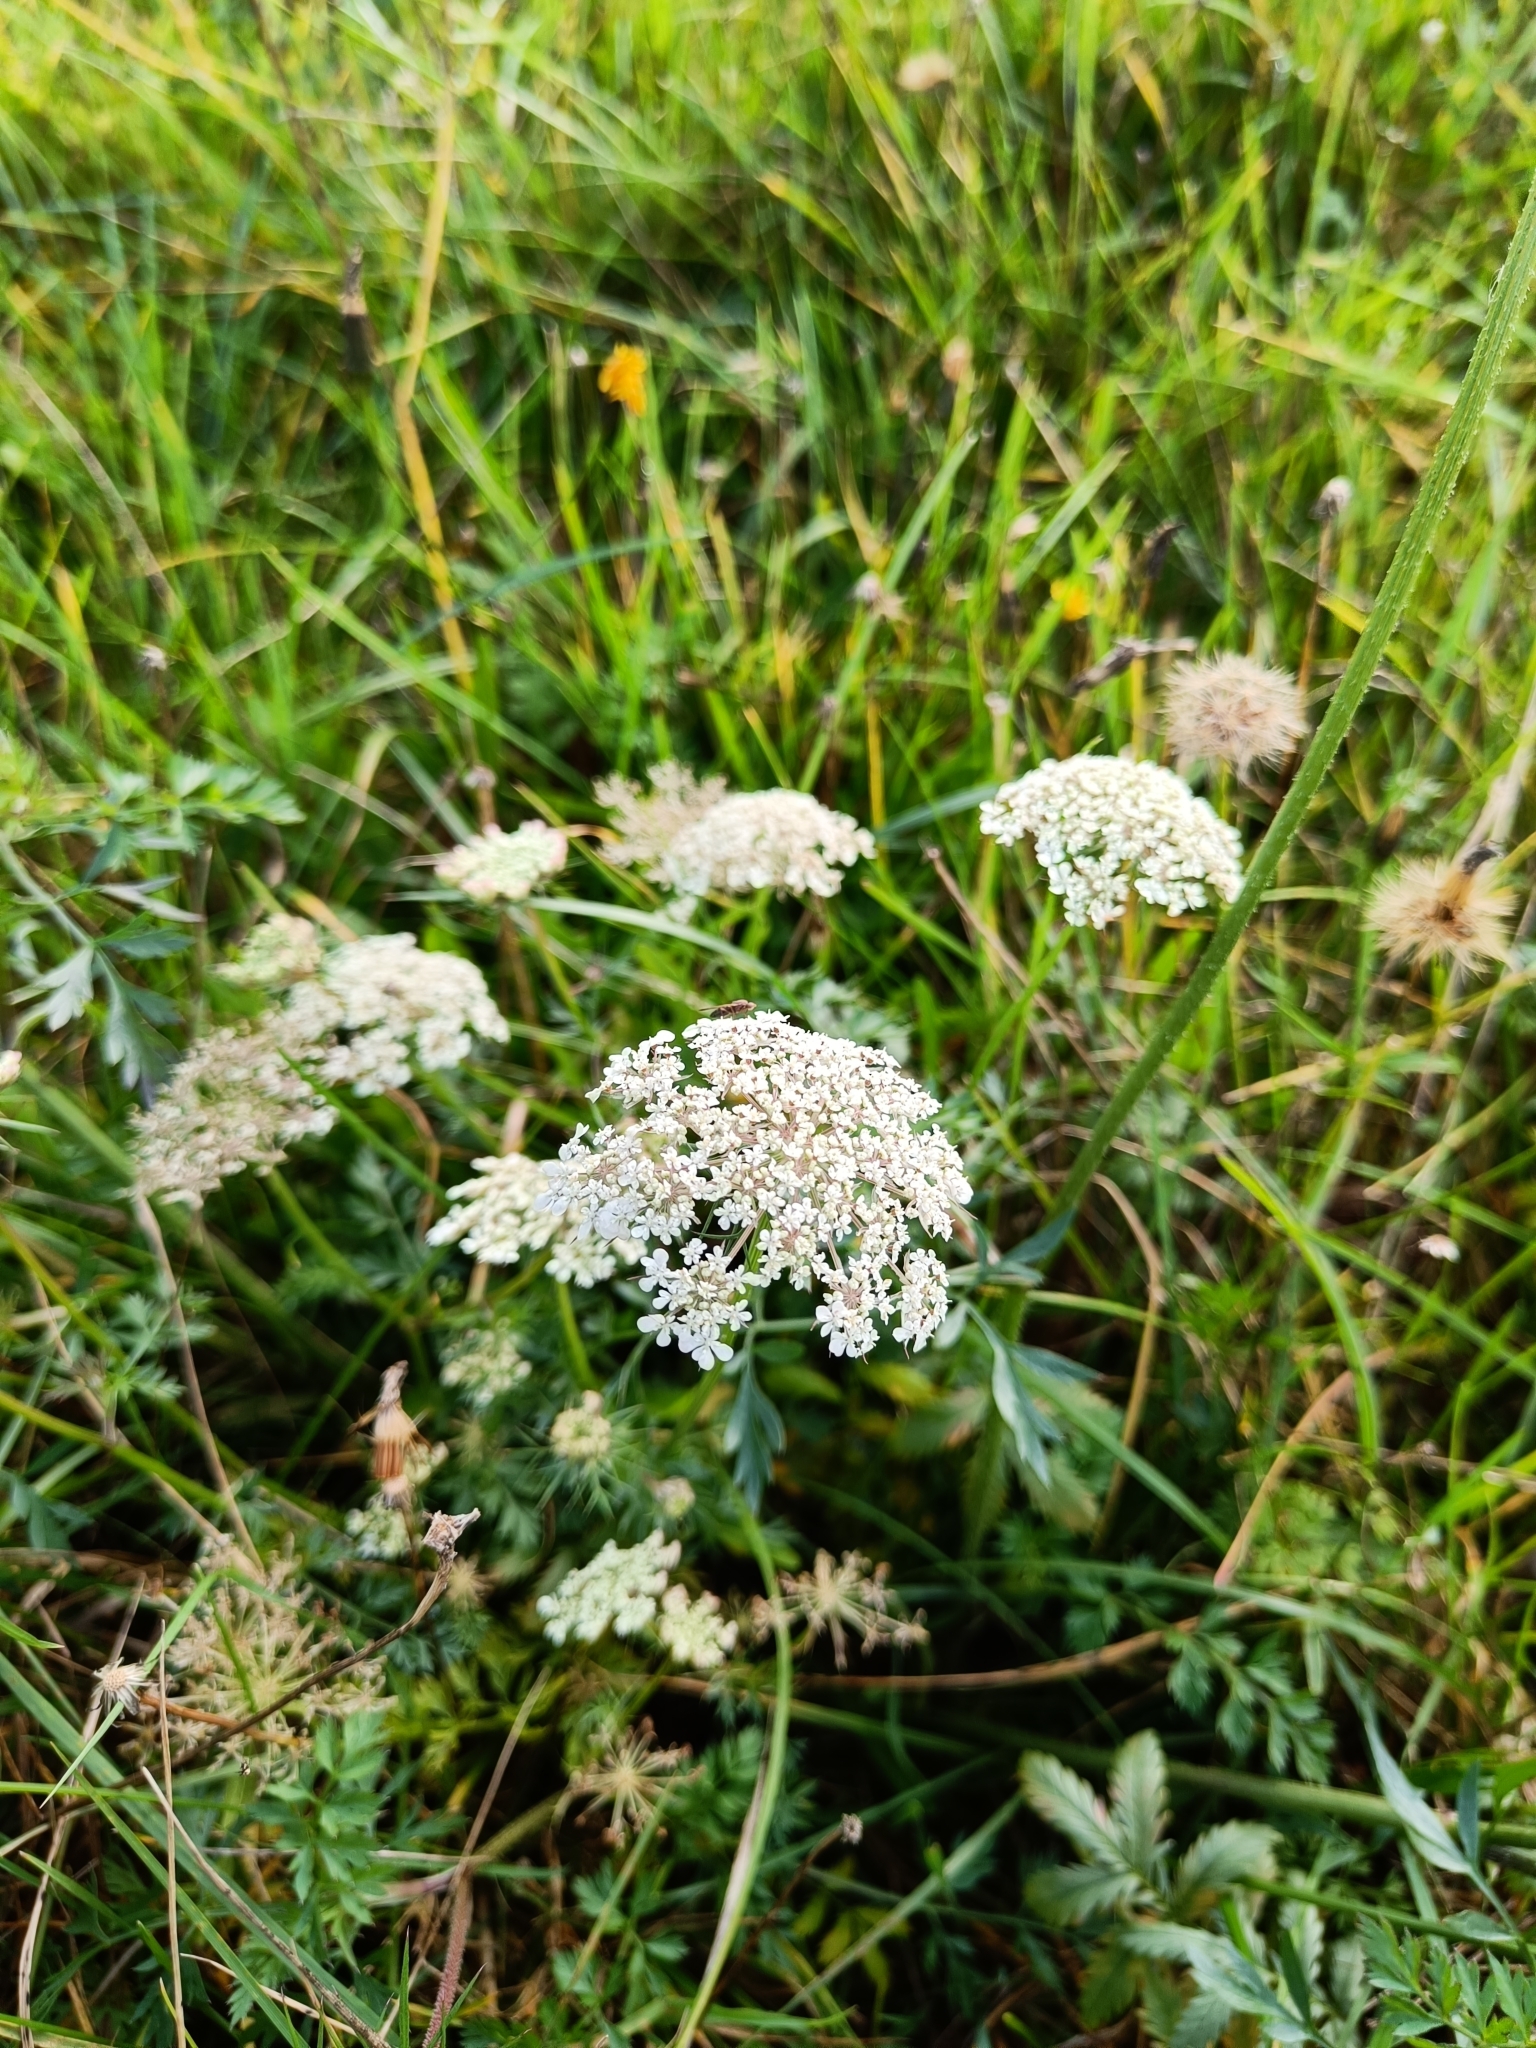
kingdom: Plantae
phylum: Tracheophyta
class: Magnoliopsida
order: Apiales
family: Apiaceae
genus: Daucus
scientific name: Daucus carota
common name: Wild carrot
